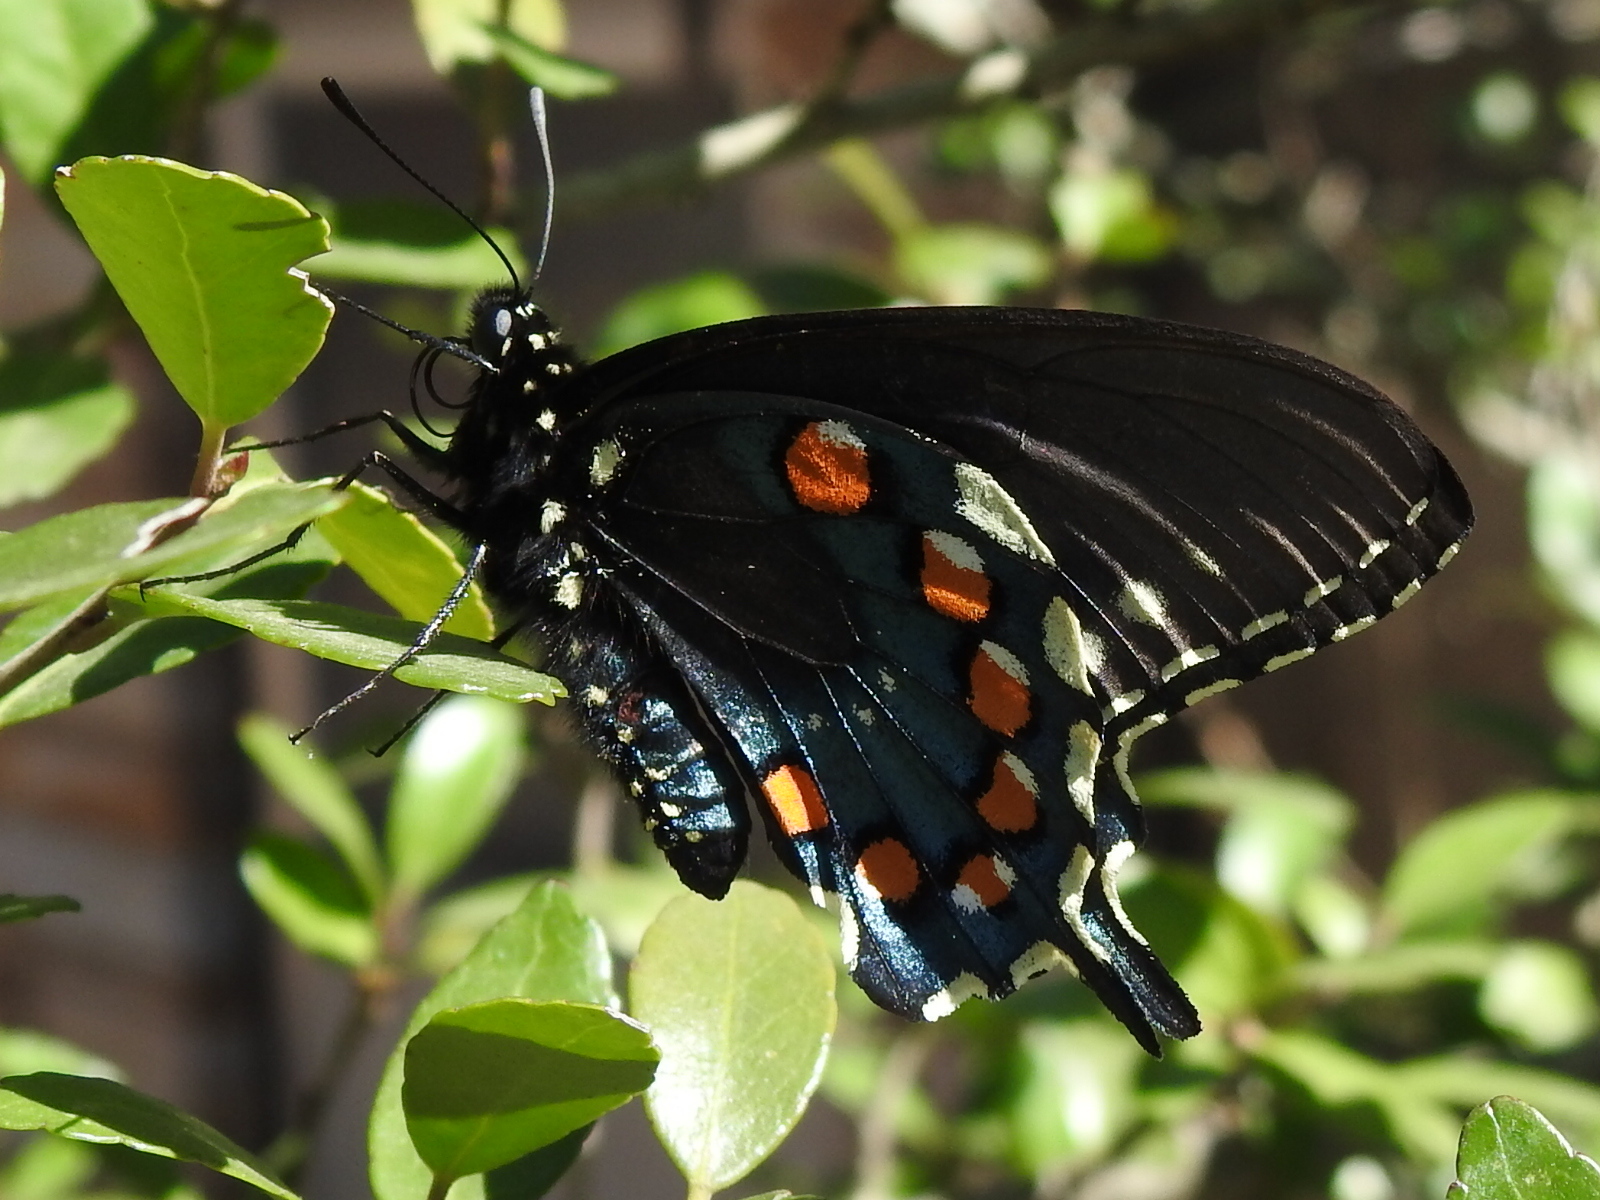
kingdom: Animalia
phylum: Arthropoda
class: Insecta
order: Lepidoptera
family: Papilionidae
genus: Battus
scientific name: Battus philenor
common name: Pipevine swallowtail
